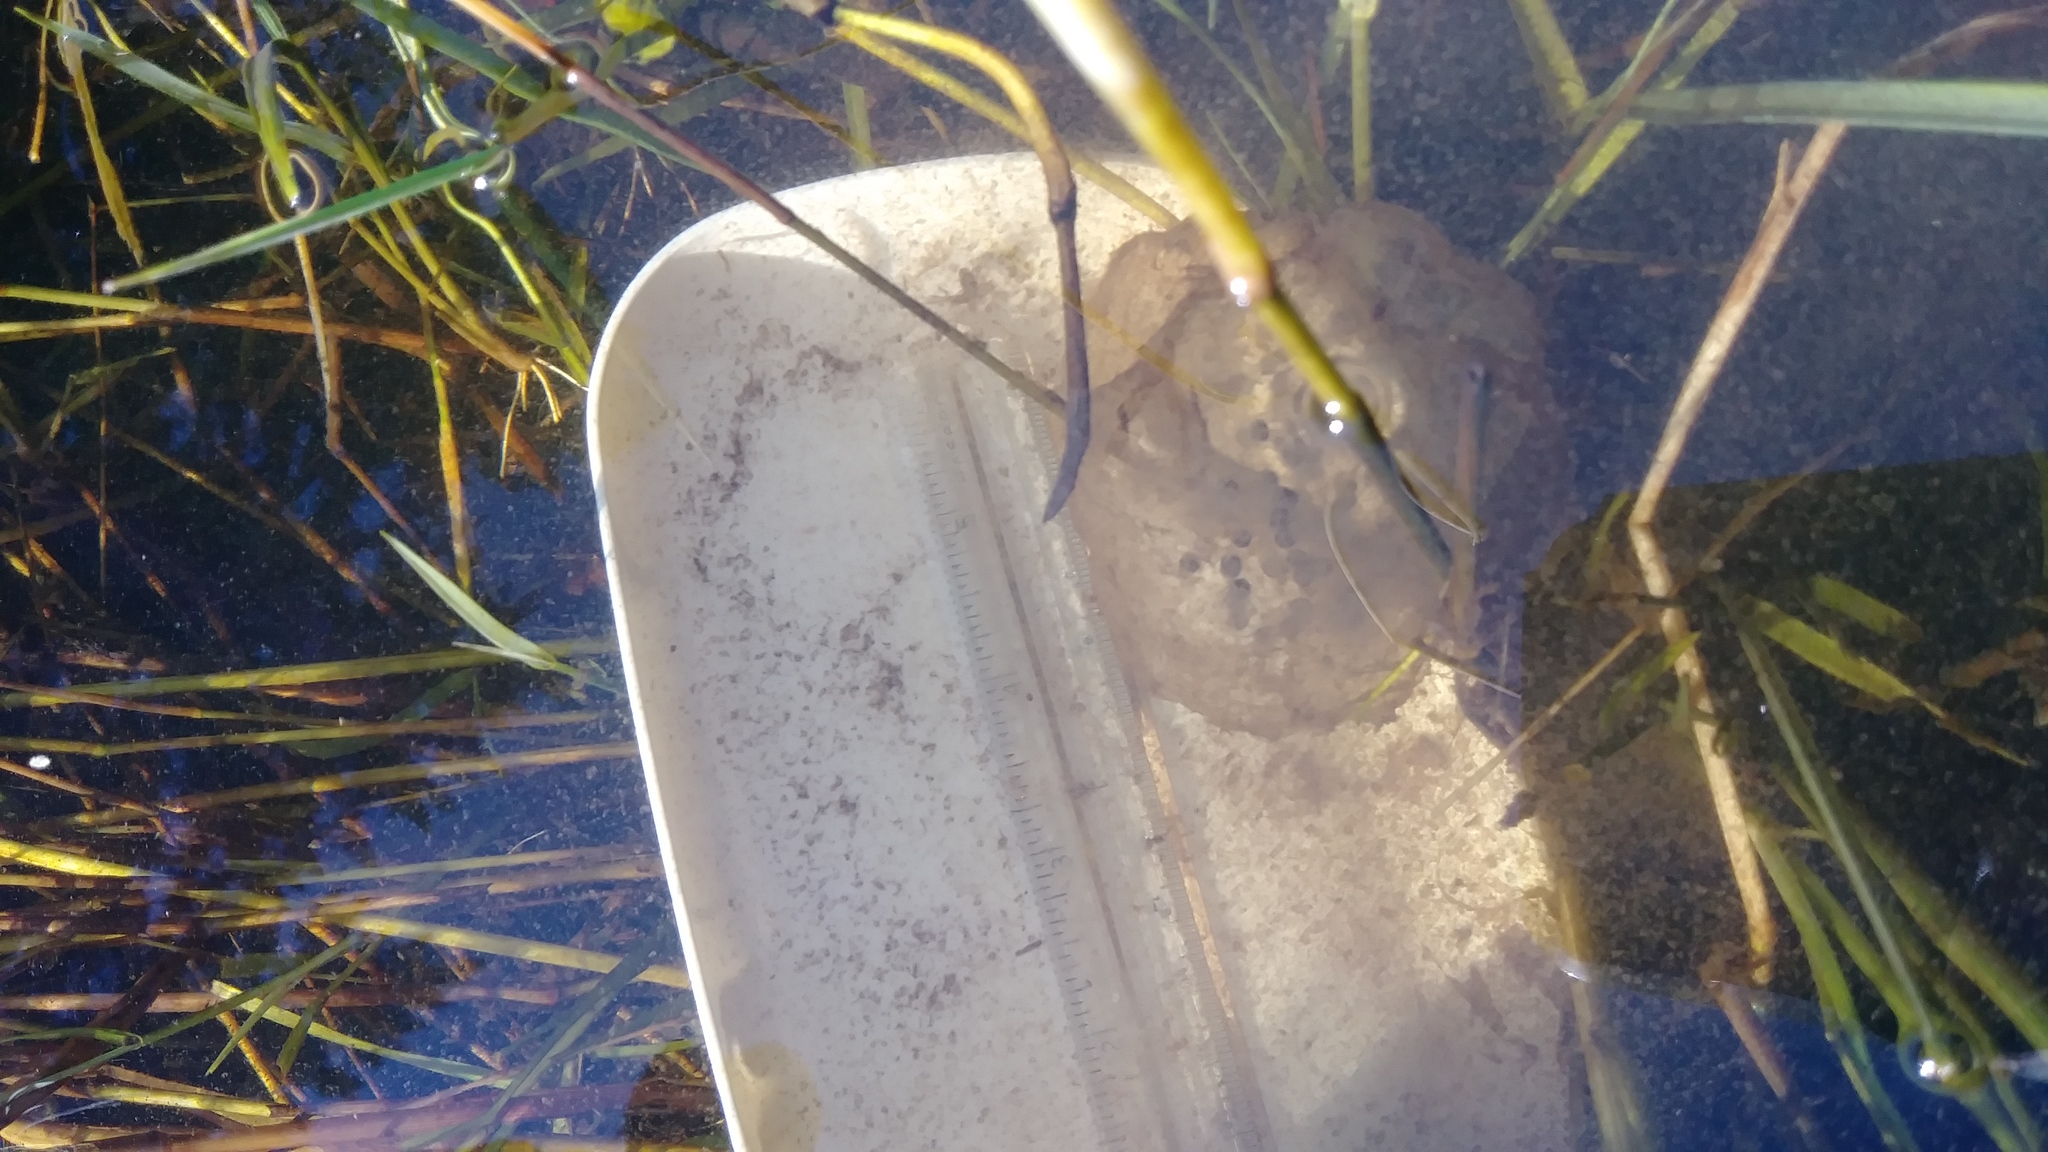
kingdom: Animalia
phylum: Chordata
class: Amphibia
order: Caudata
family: Ambystomatidae
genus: Ambystoma
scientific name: Ambystoma gracile
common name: Northwestern salamander
